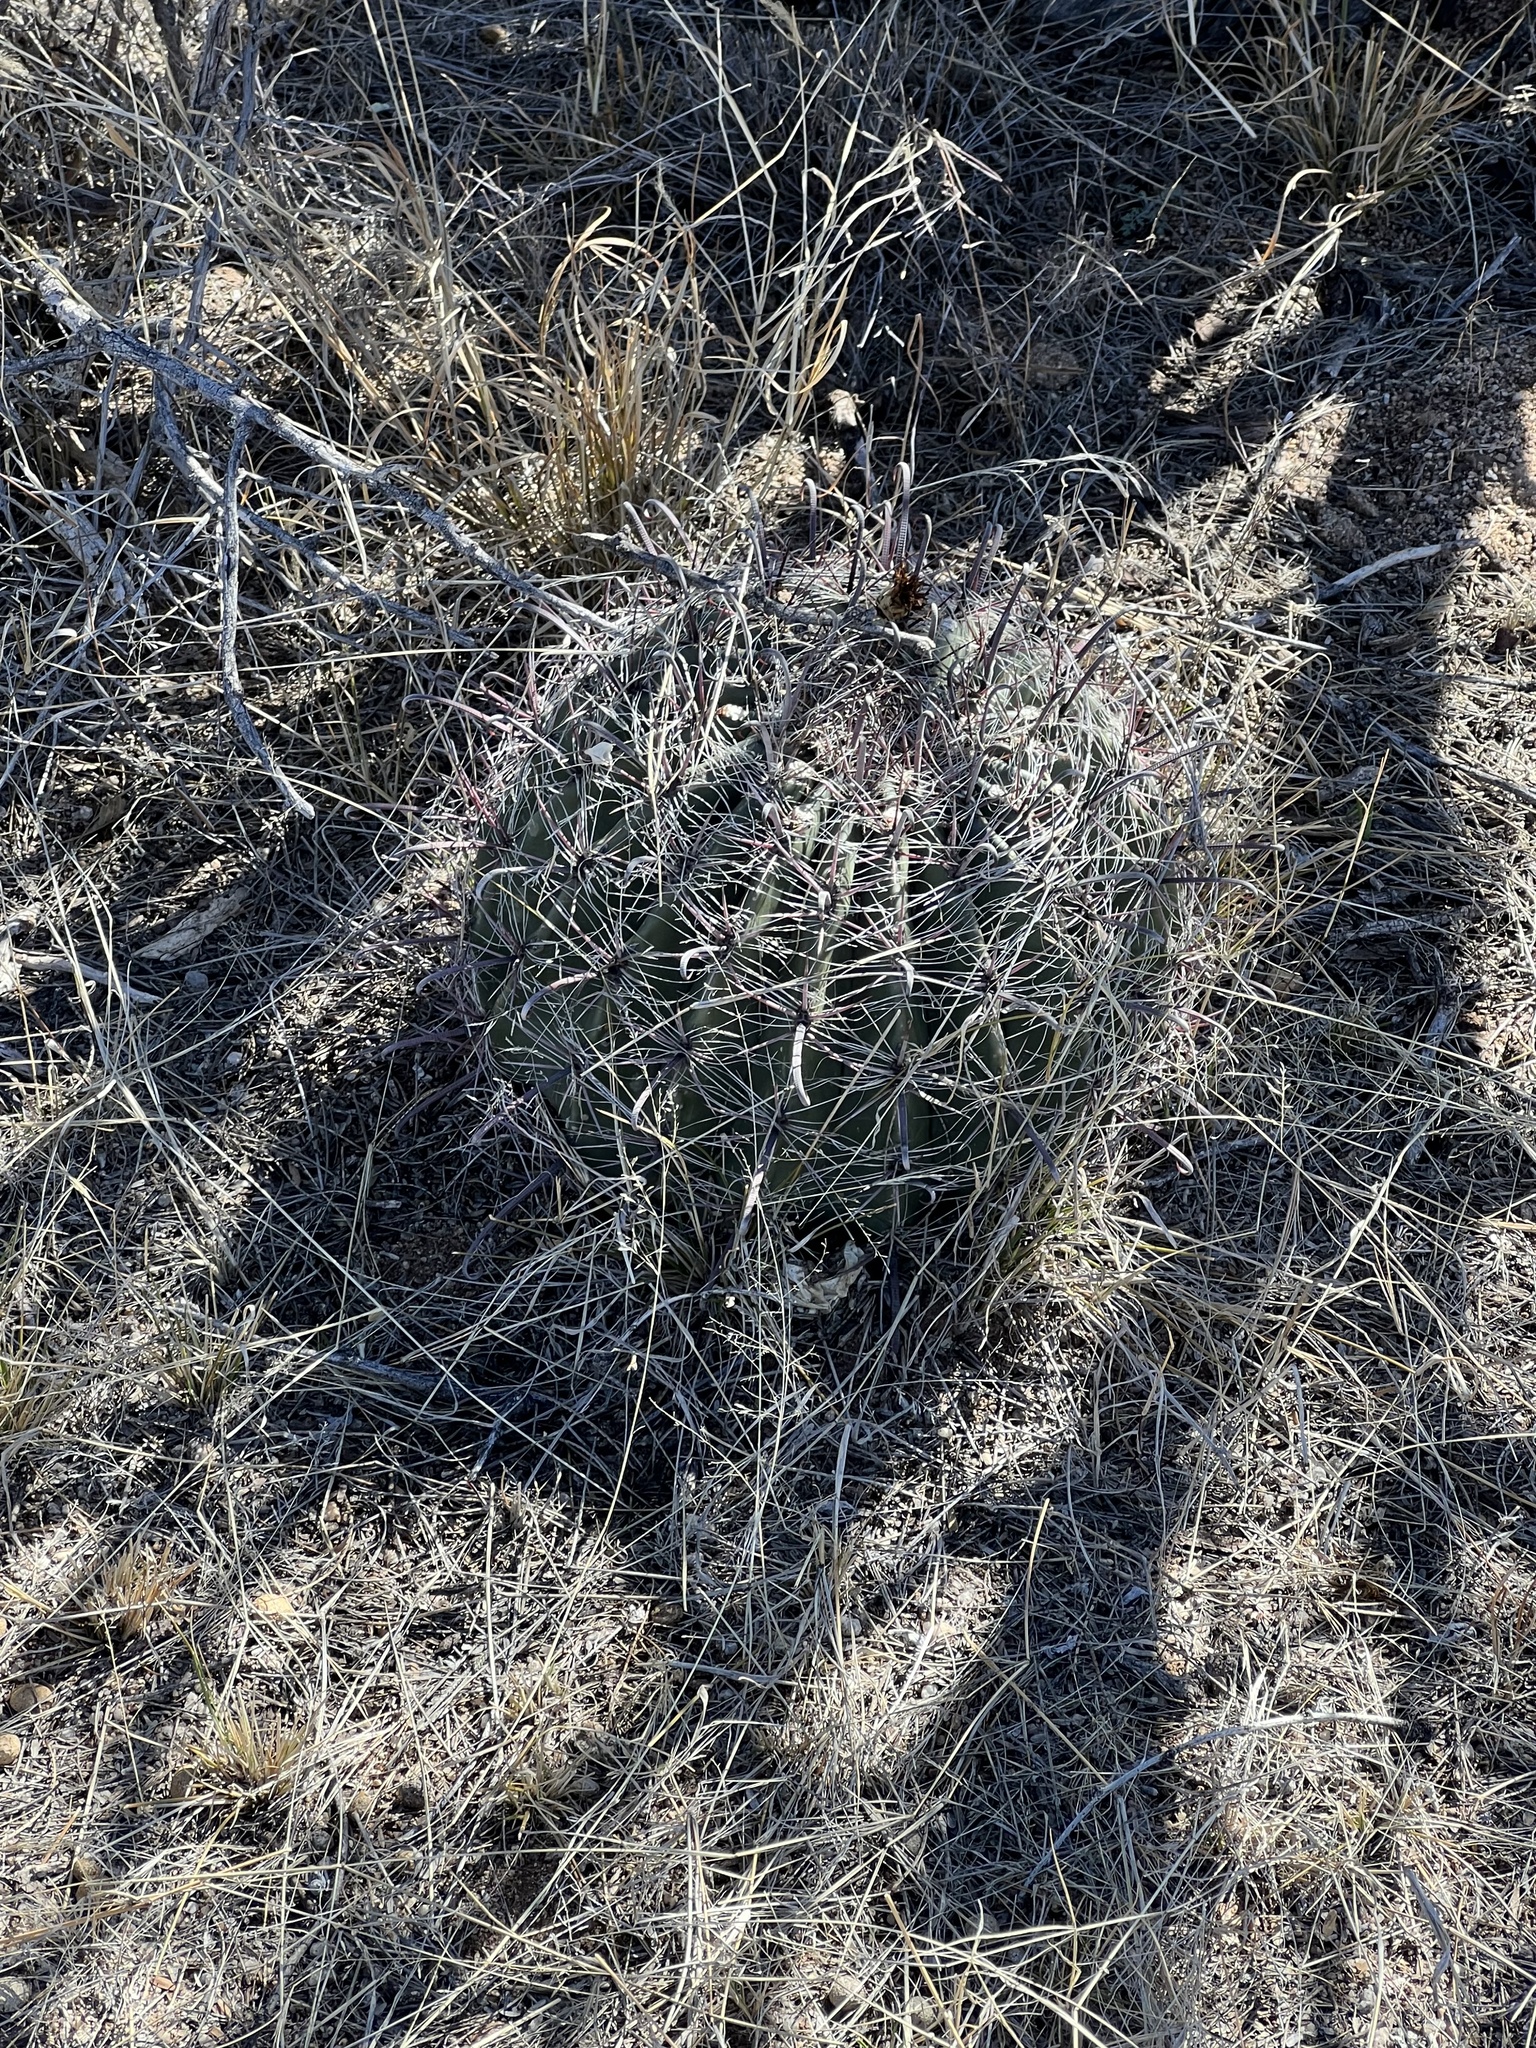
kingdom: Plantae
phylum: Tracheophyta
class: Magnoliopsida
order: Caryophyllales
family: Cactaceae
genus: Ferocactus
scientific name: Ferocactus wislizeni
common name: Candy barrel cactus
